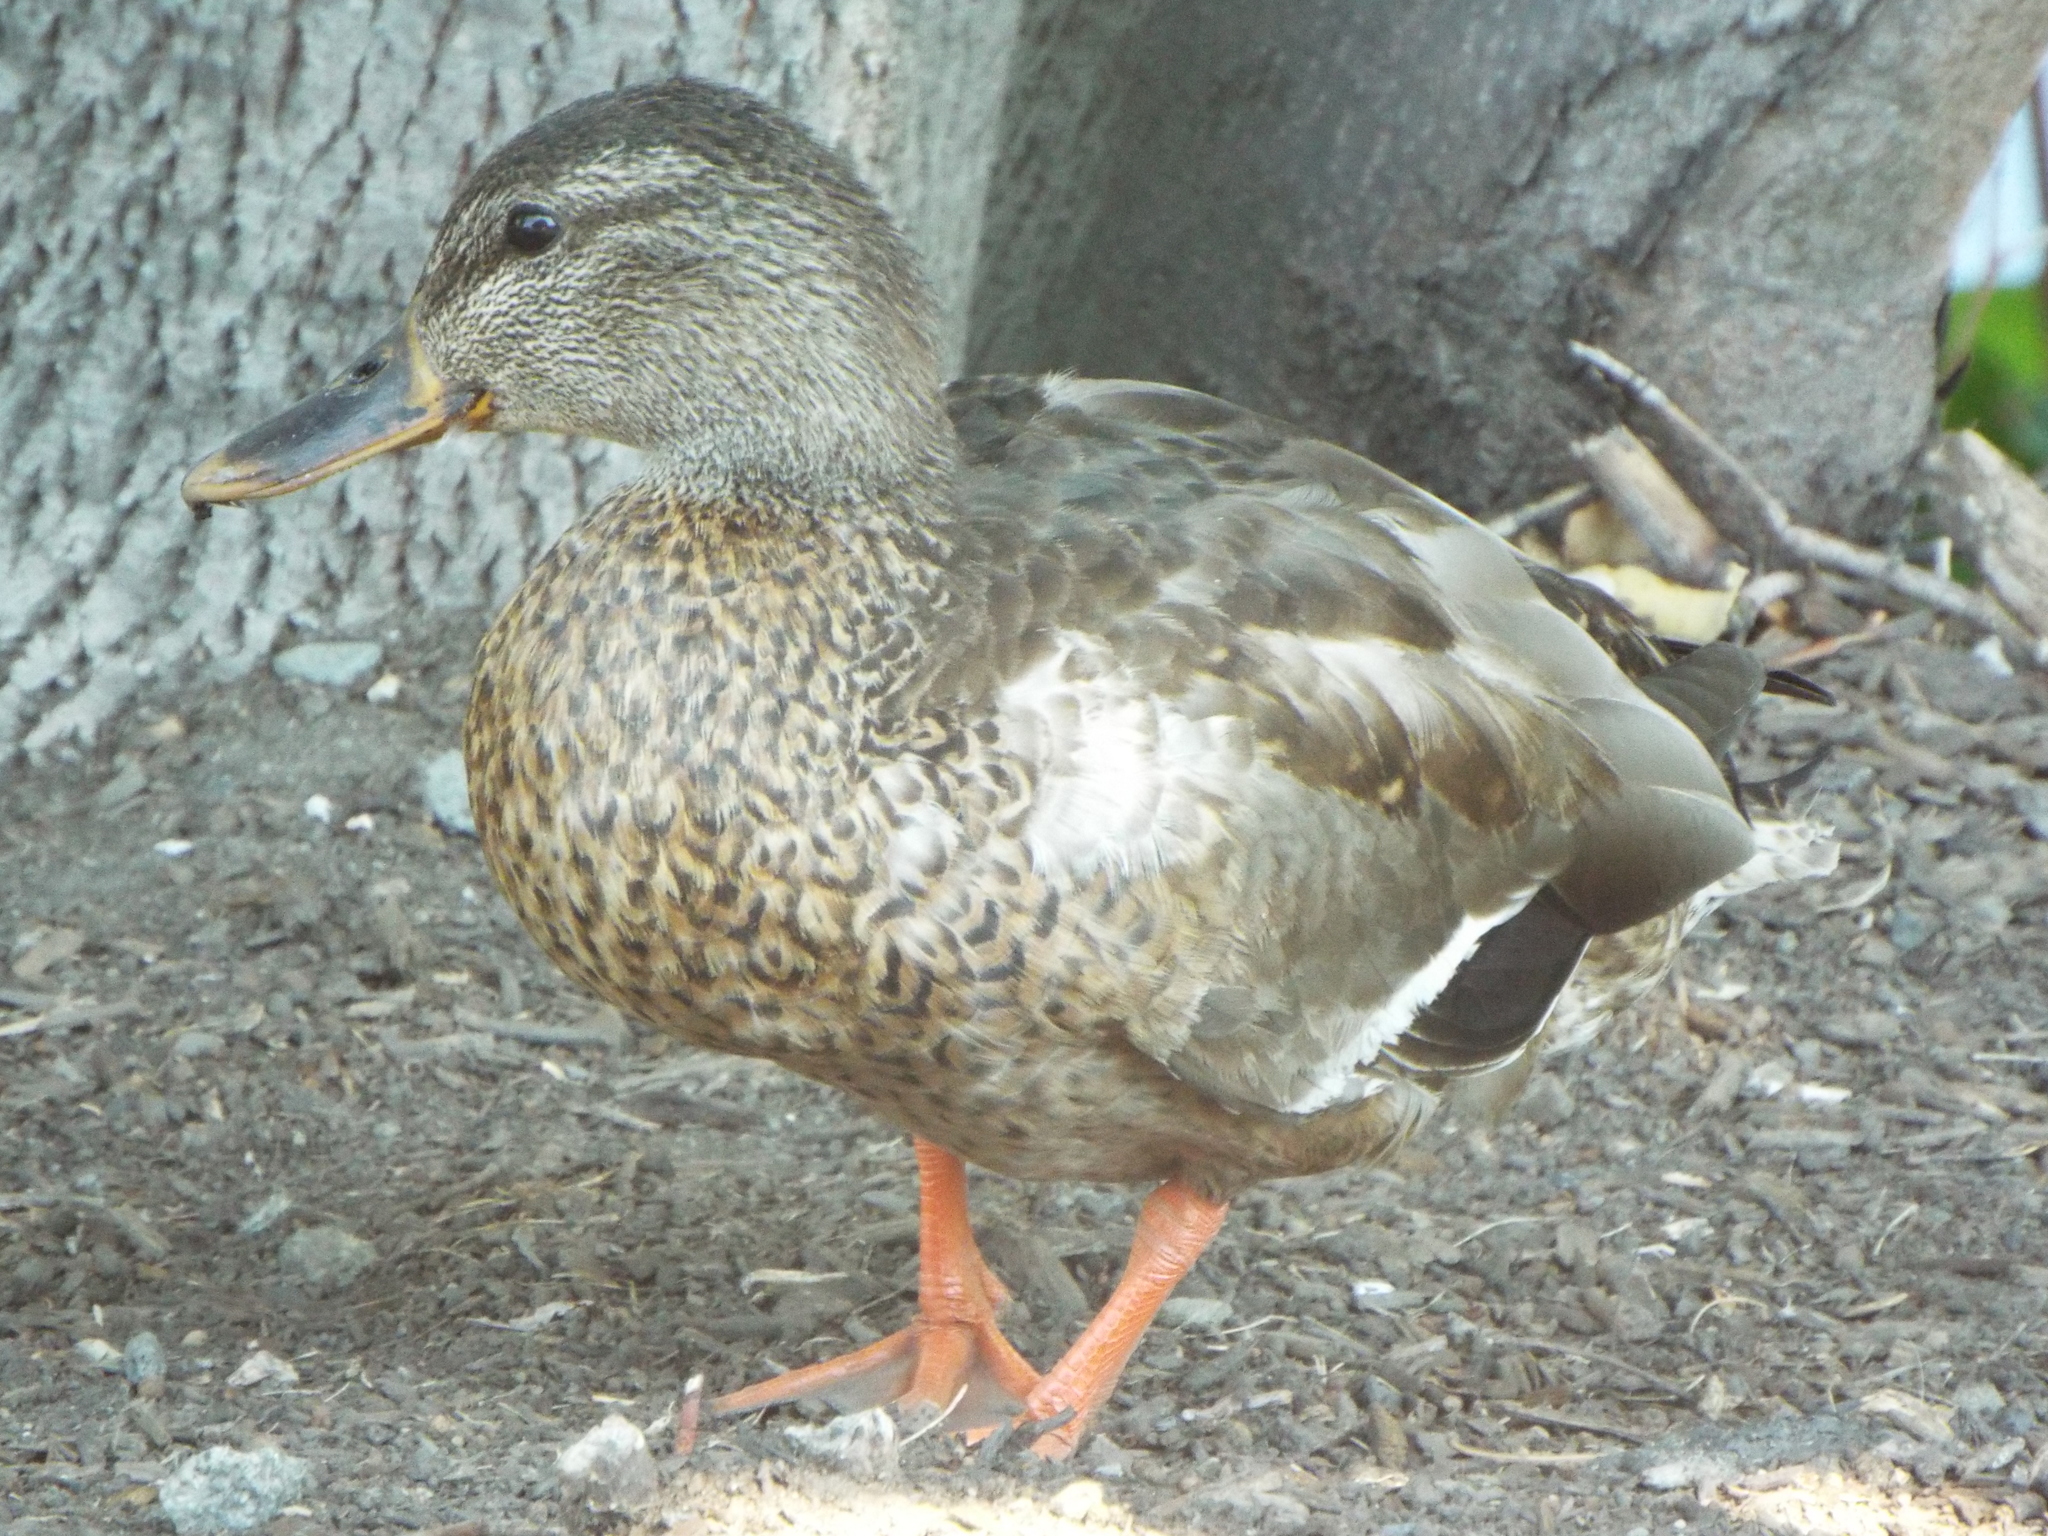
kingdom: Animalia
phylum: Chordata
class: Aves
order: Anseriformes
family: Anatidae
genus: Anas
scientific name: Anas platyrhynchos
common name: Mallard
